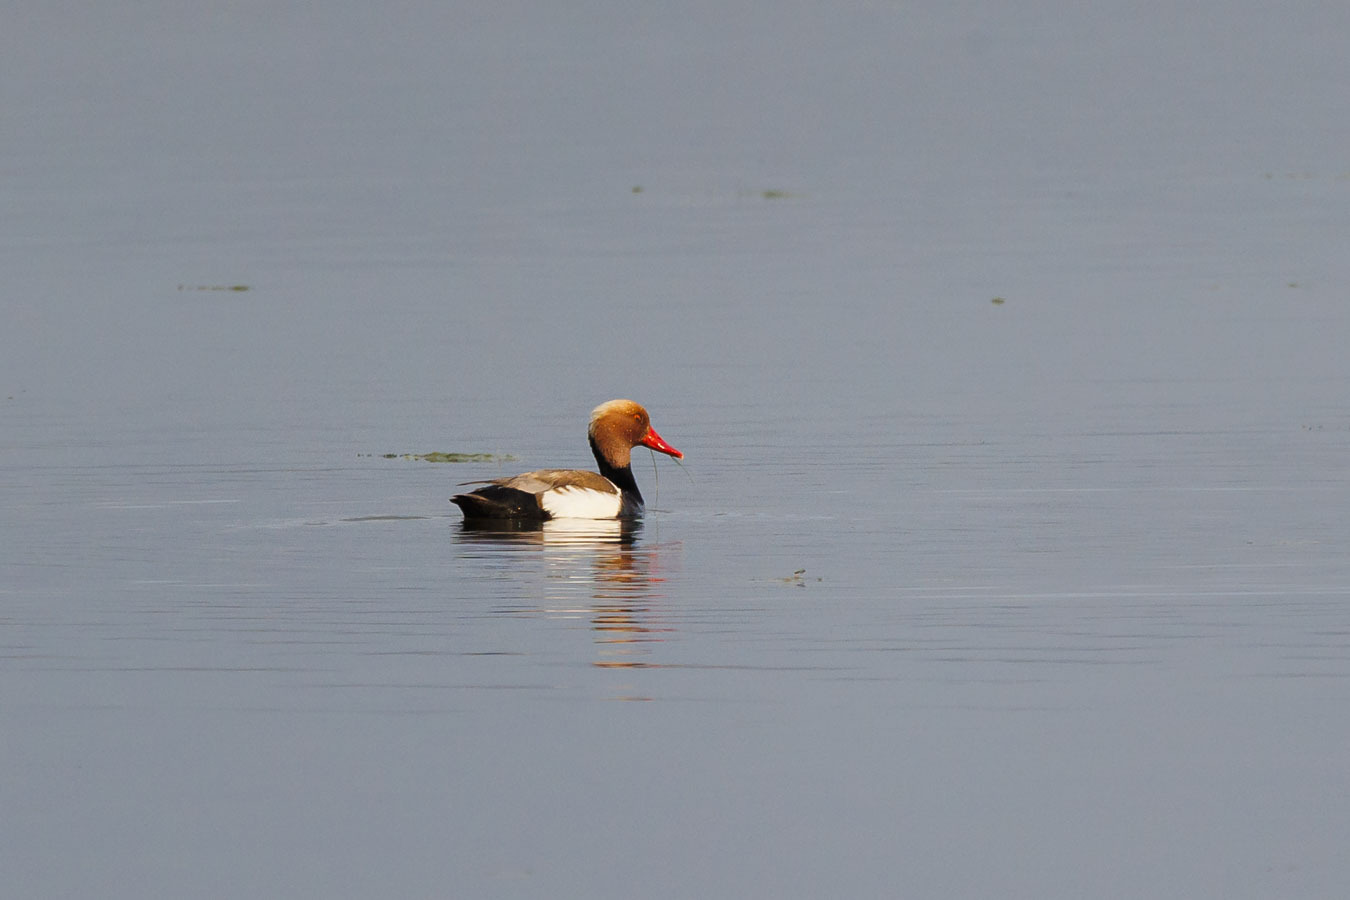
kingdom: Animalia
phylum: Chordata
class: Aves
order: Anseriformes
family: Anatidae
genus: Netta
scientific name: Netta rufina
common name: Red-crested pochard
